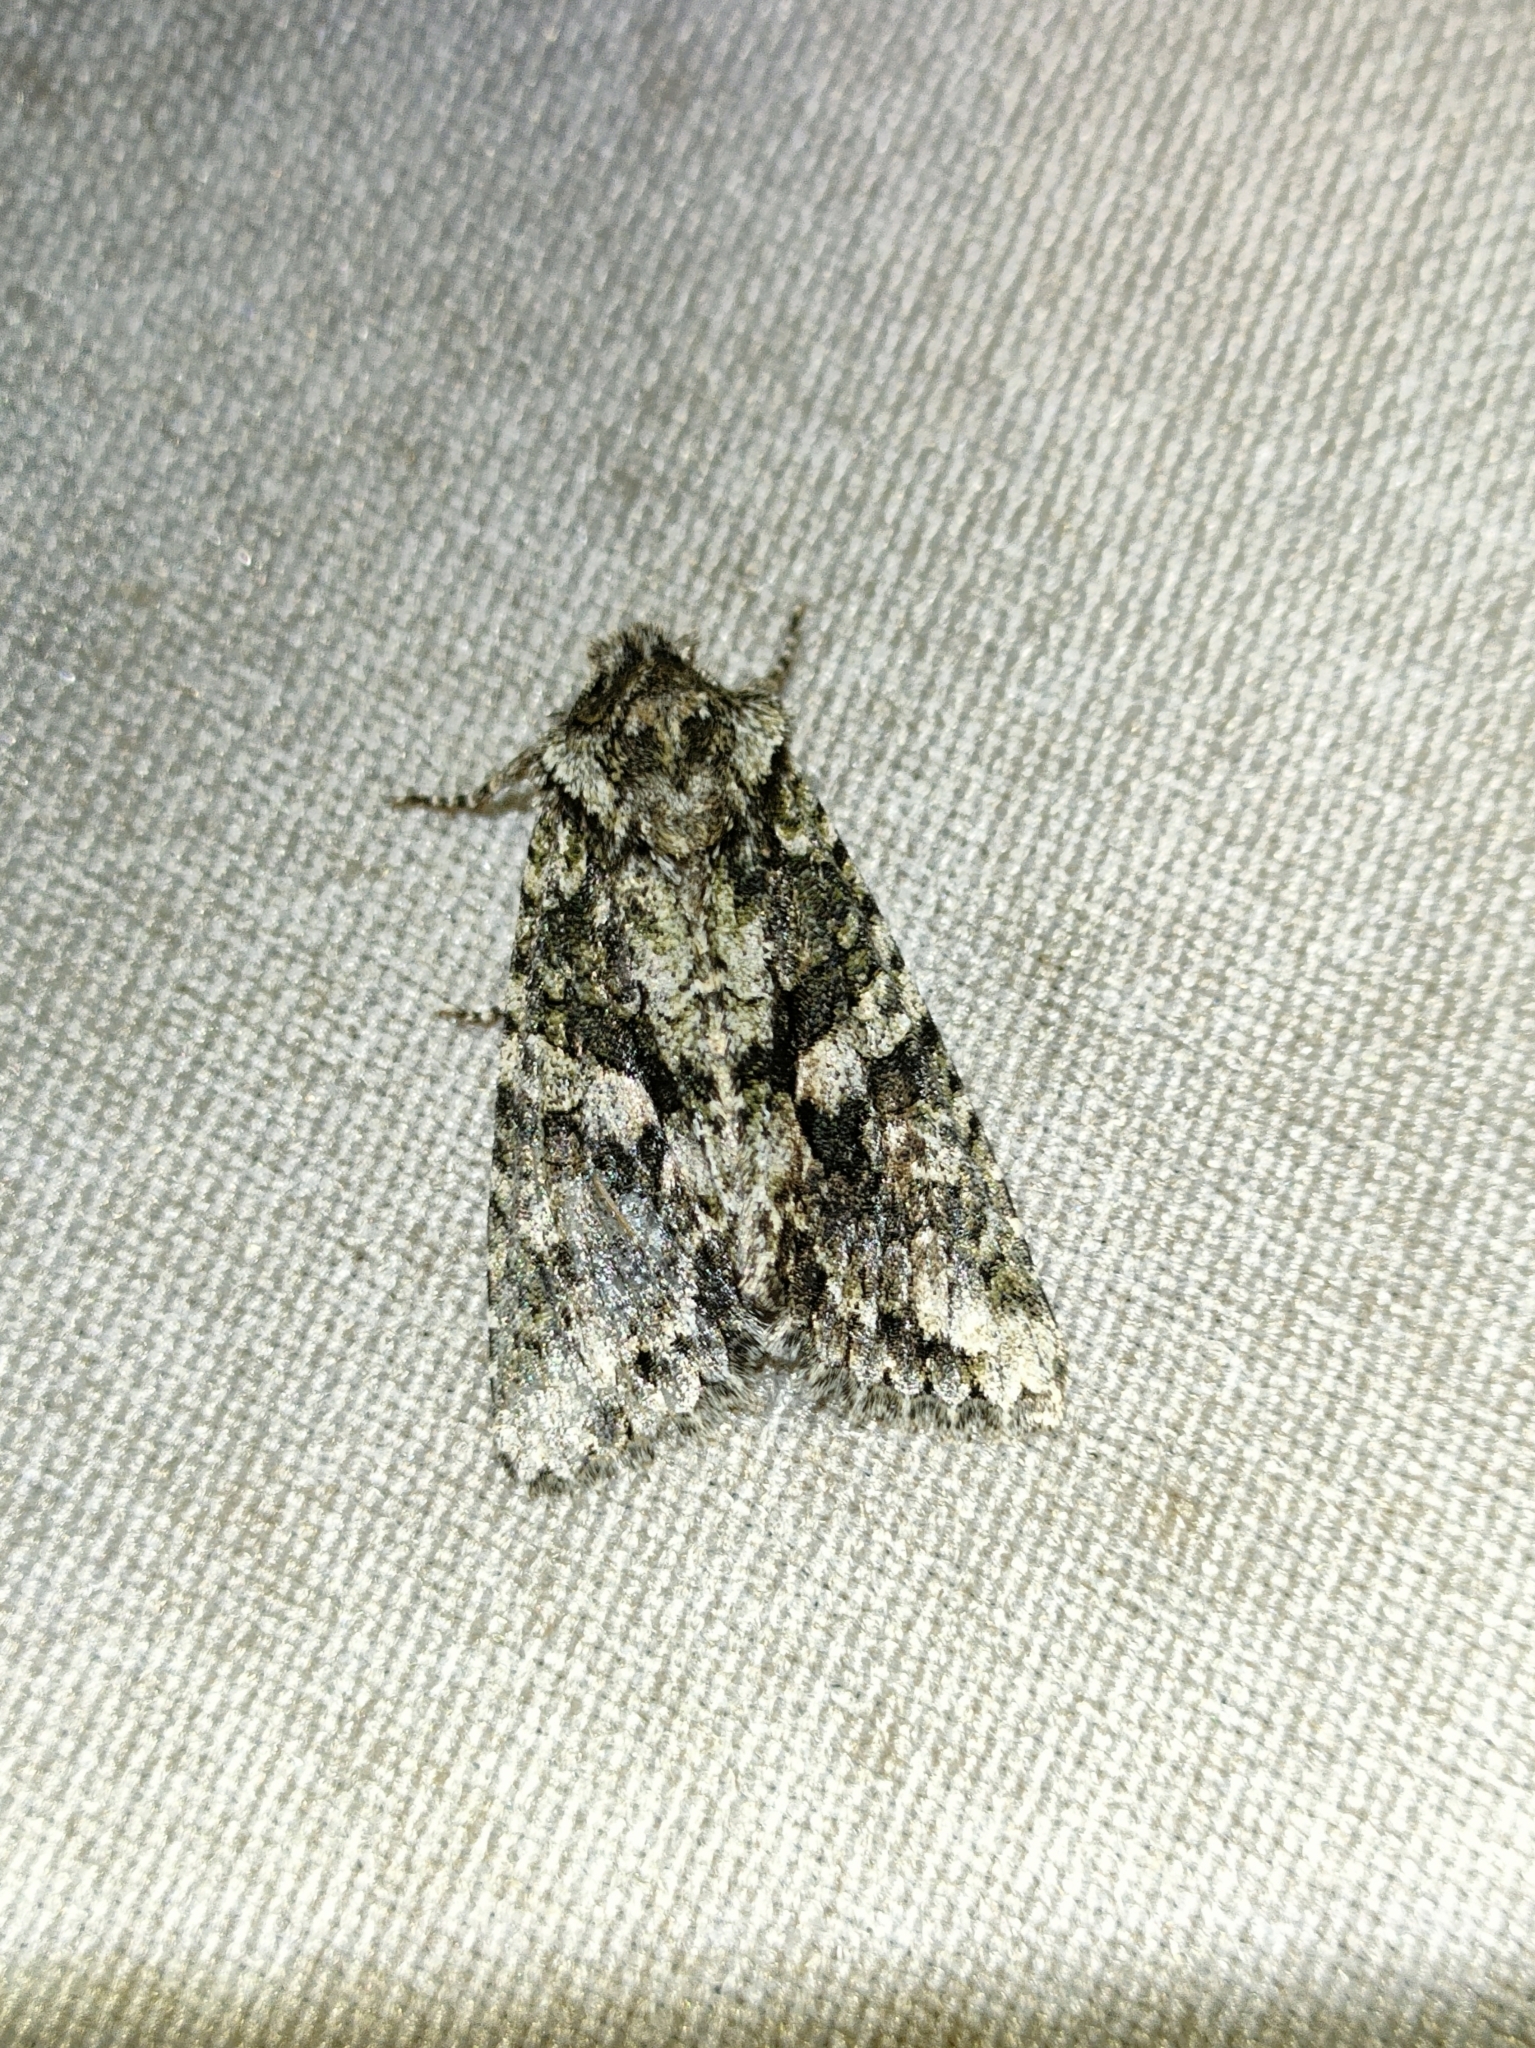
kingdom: Animalia
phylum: Arthropoda
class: Insecta
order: Lepidoptera
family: Noctuidae
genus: Dryobotodes
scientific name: Dryobotodes eremita
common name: Brindled green
